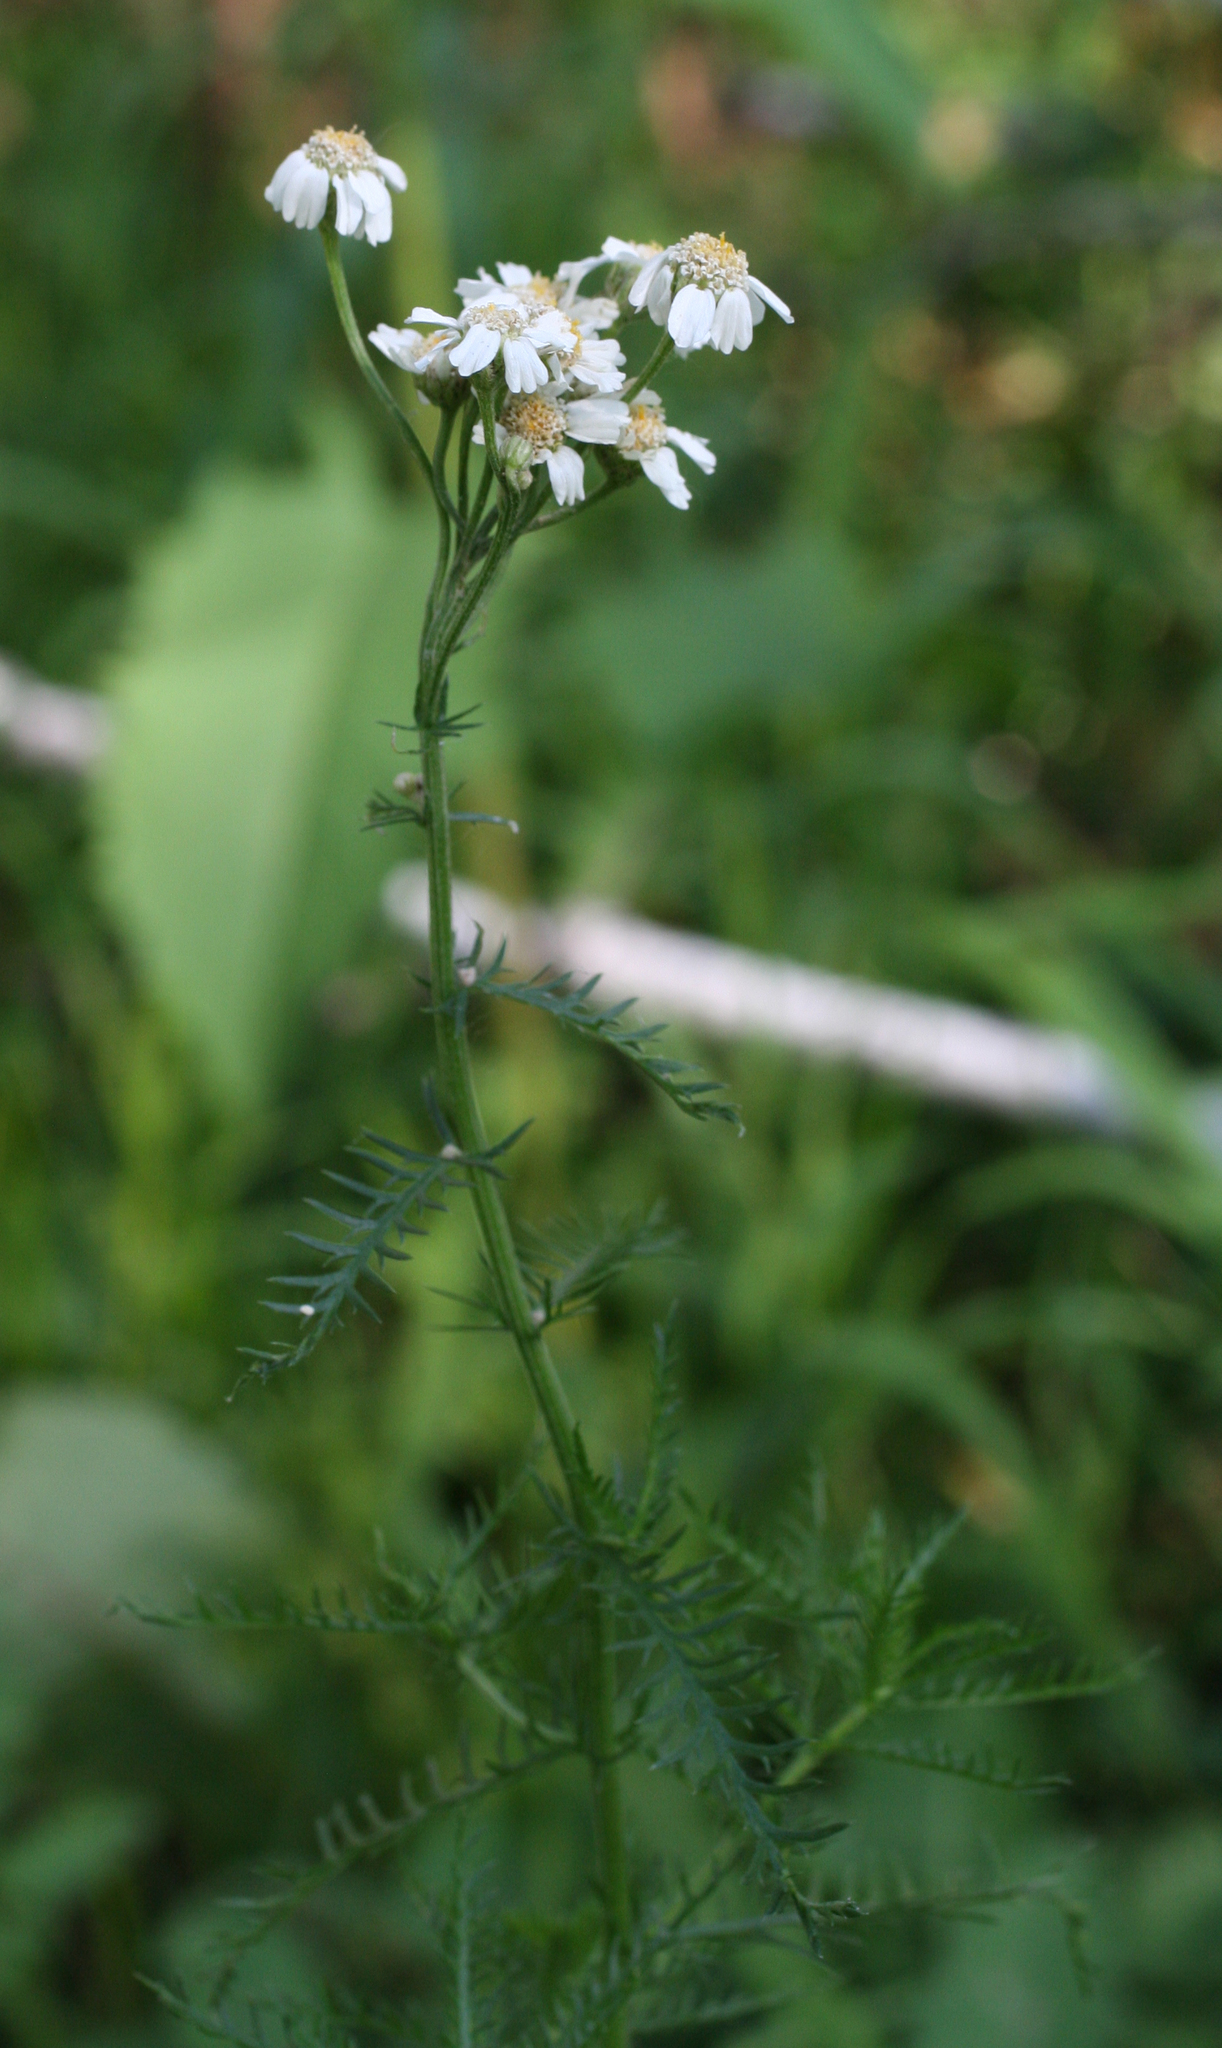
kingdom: Plantae
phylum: Tracheophyta
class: Magnoliopsida
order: Asterales
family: Asteraceae
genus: Achillea
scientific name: Achillea impatiens
